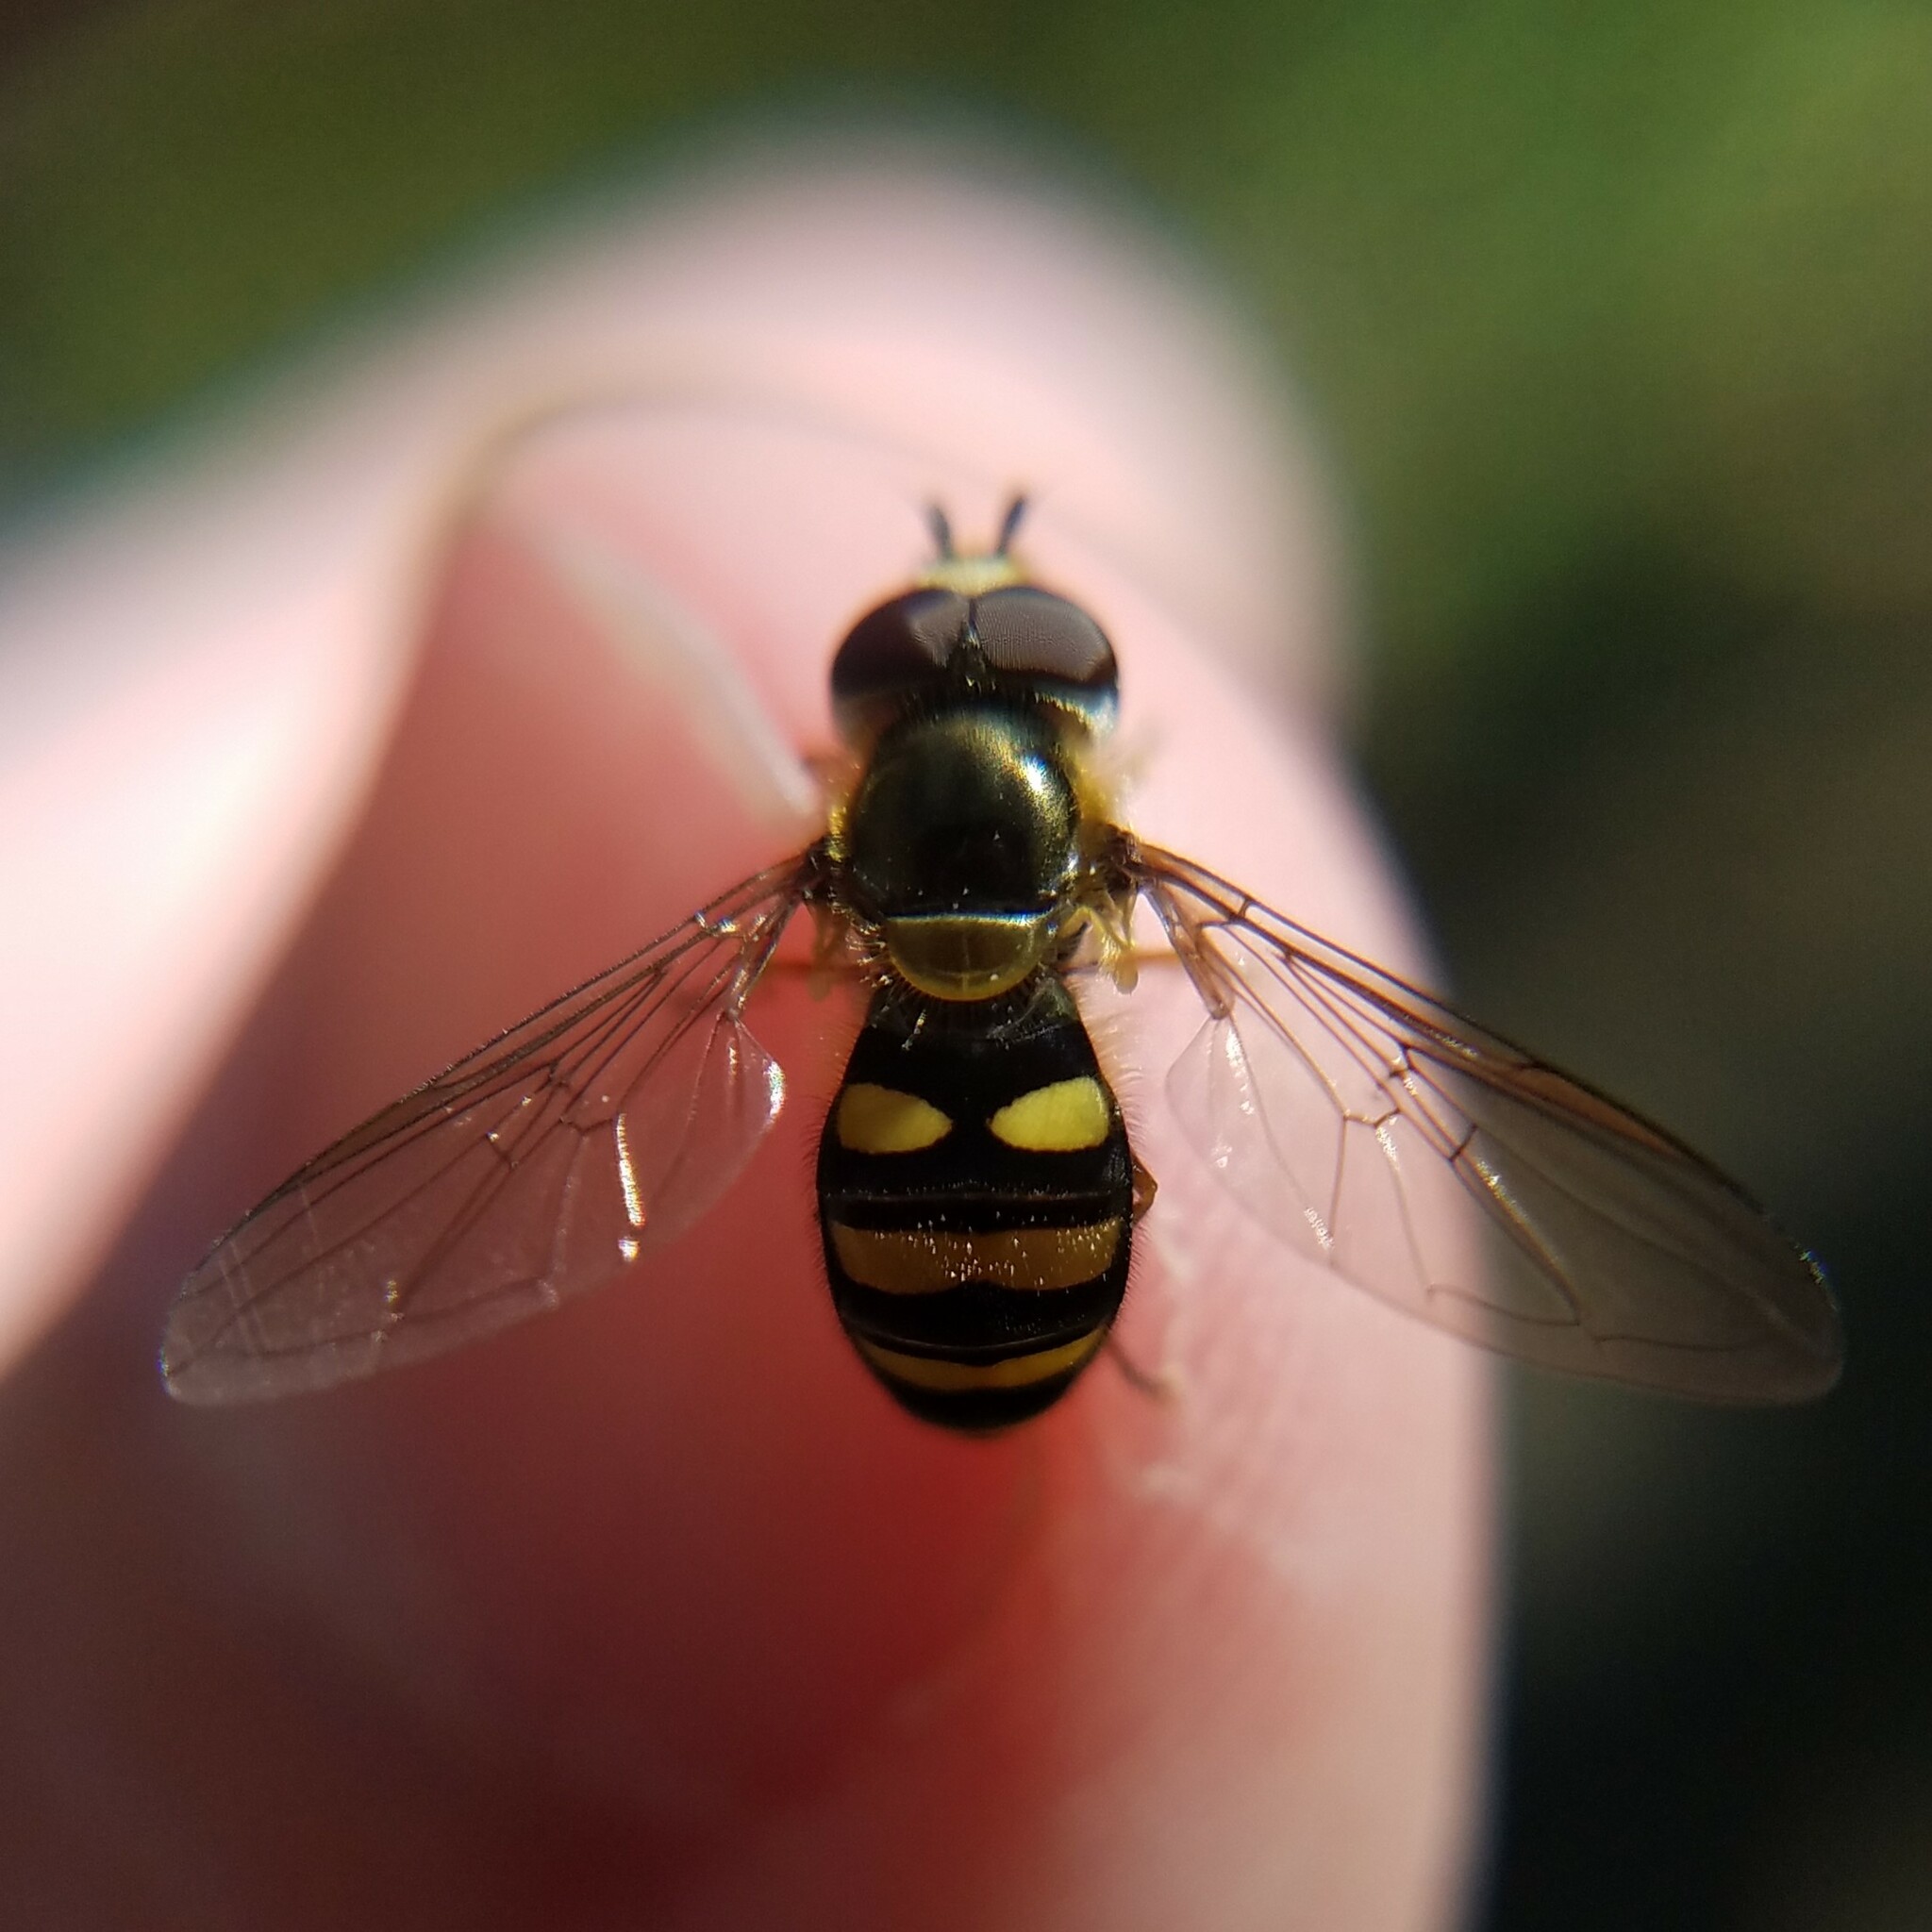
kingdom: Animalia
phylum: Arthropoda
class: Insecta
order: Diptera
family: Syrphidae
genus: Eupeodes
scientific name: Eupeodes
